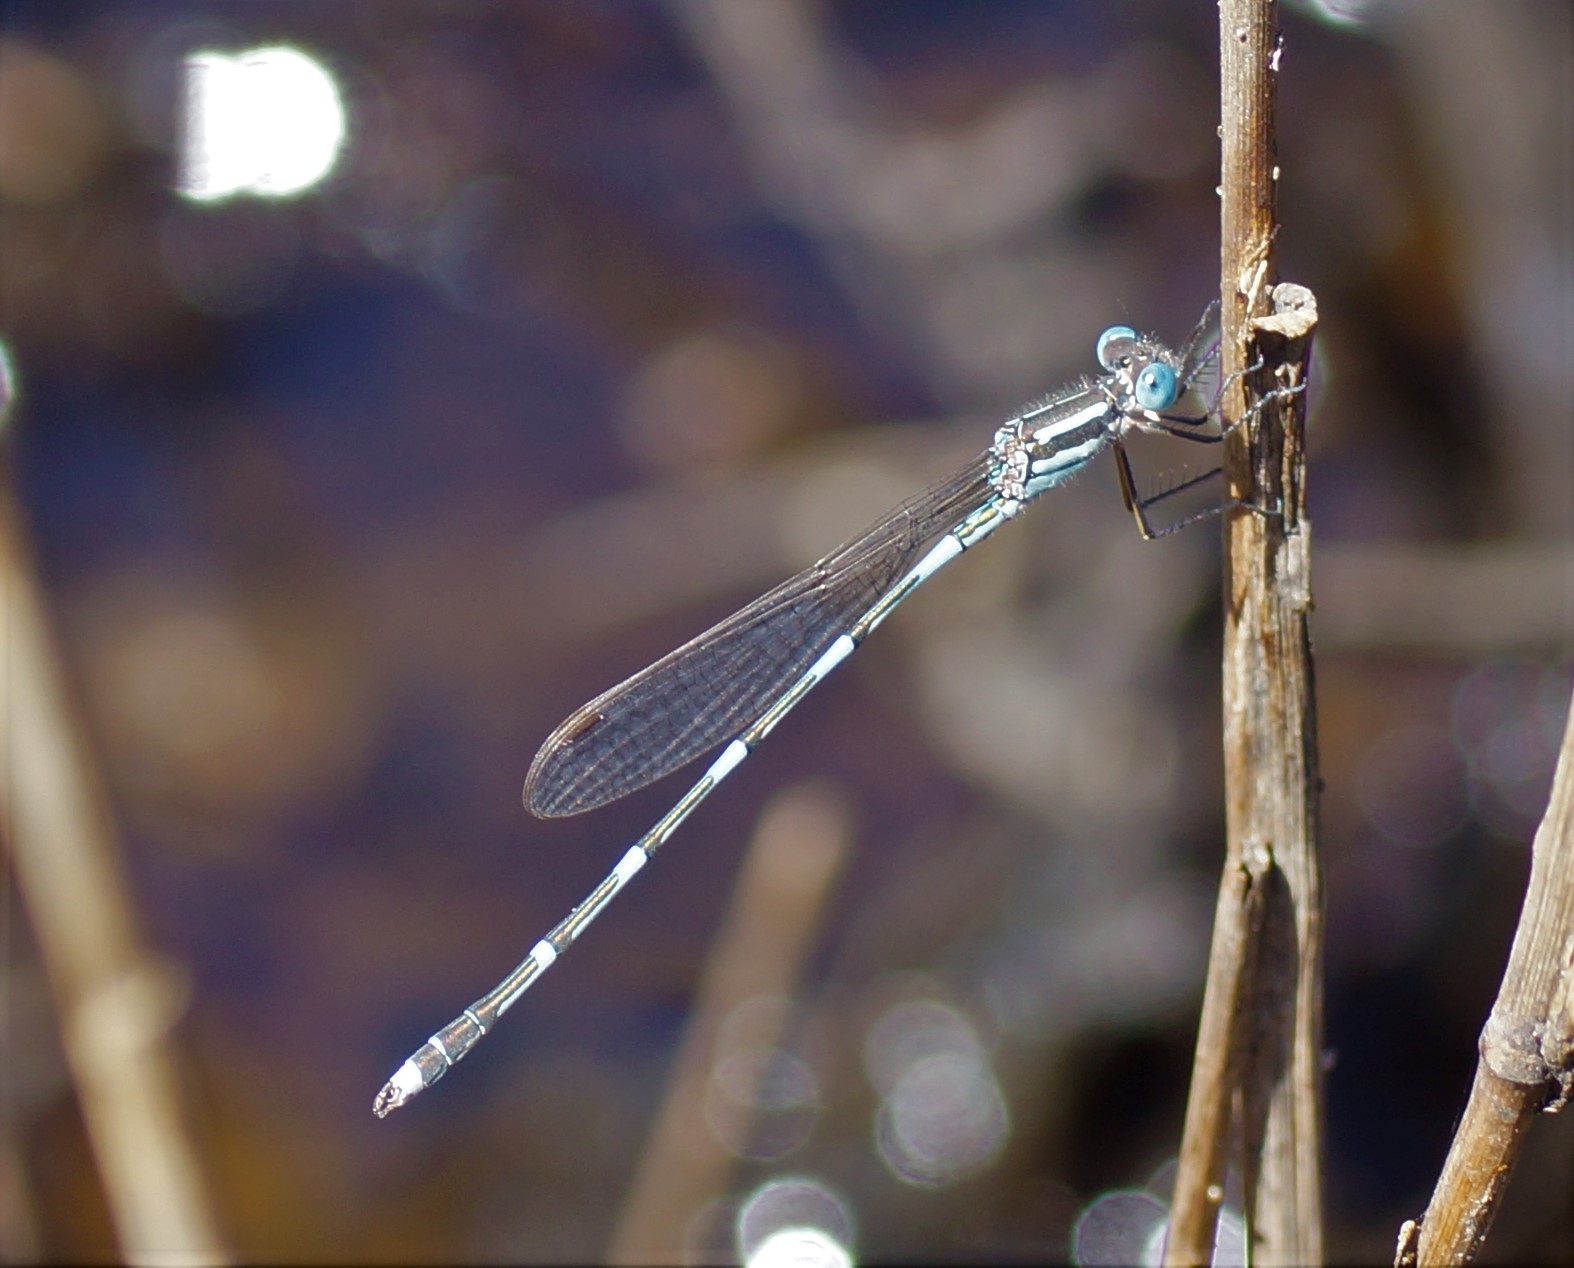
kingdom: Animalia
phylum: Arthropoda
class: Insecta
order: Odonata
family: Lestidae
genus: Austrolestes
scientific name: Austrolestes leda
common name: Wandering ringtail
